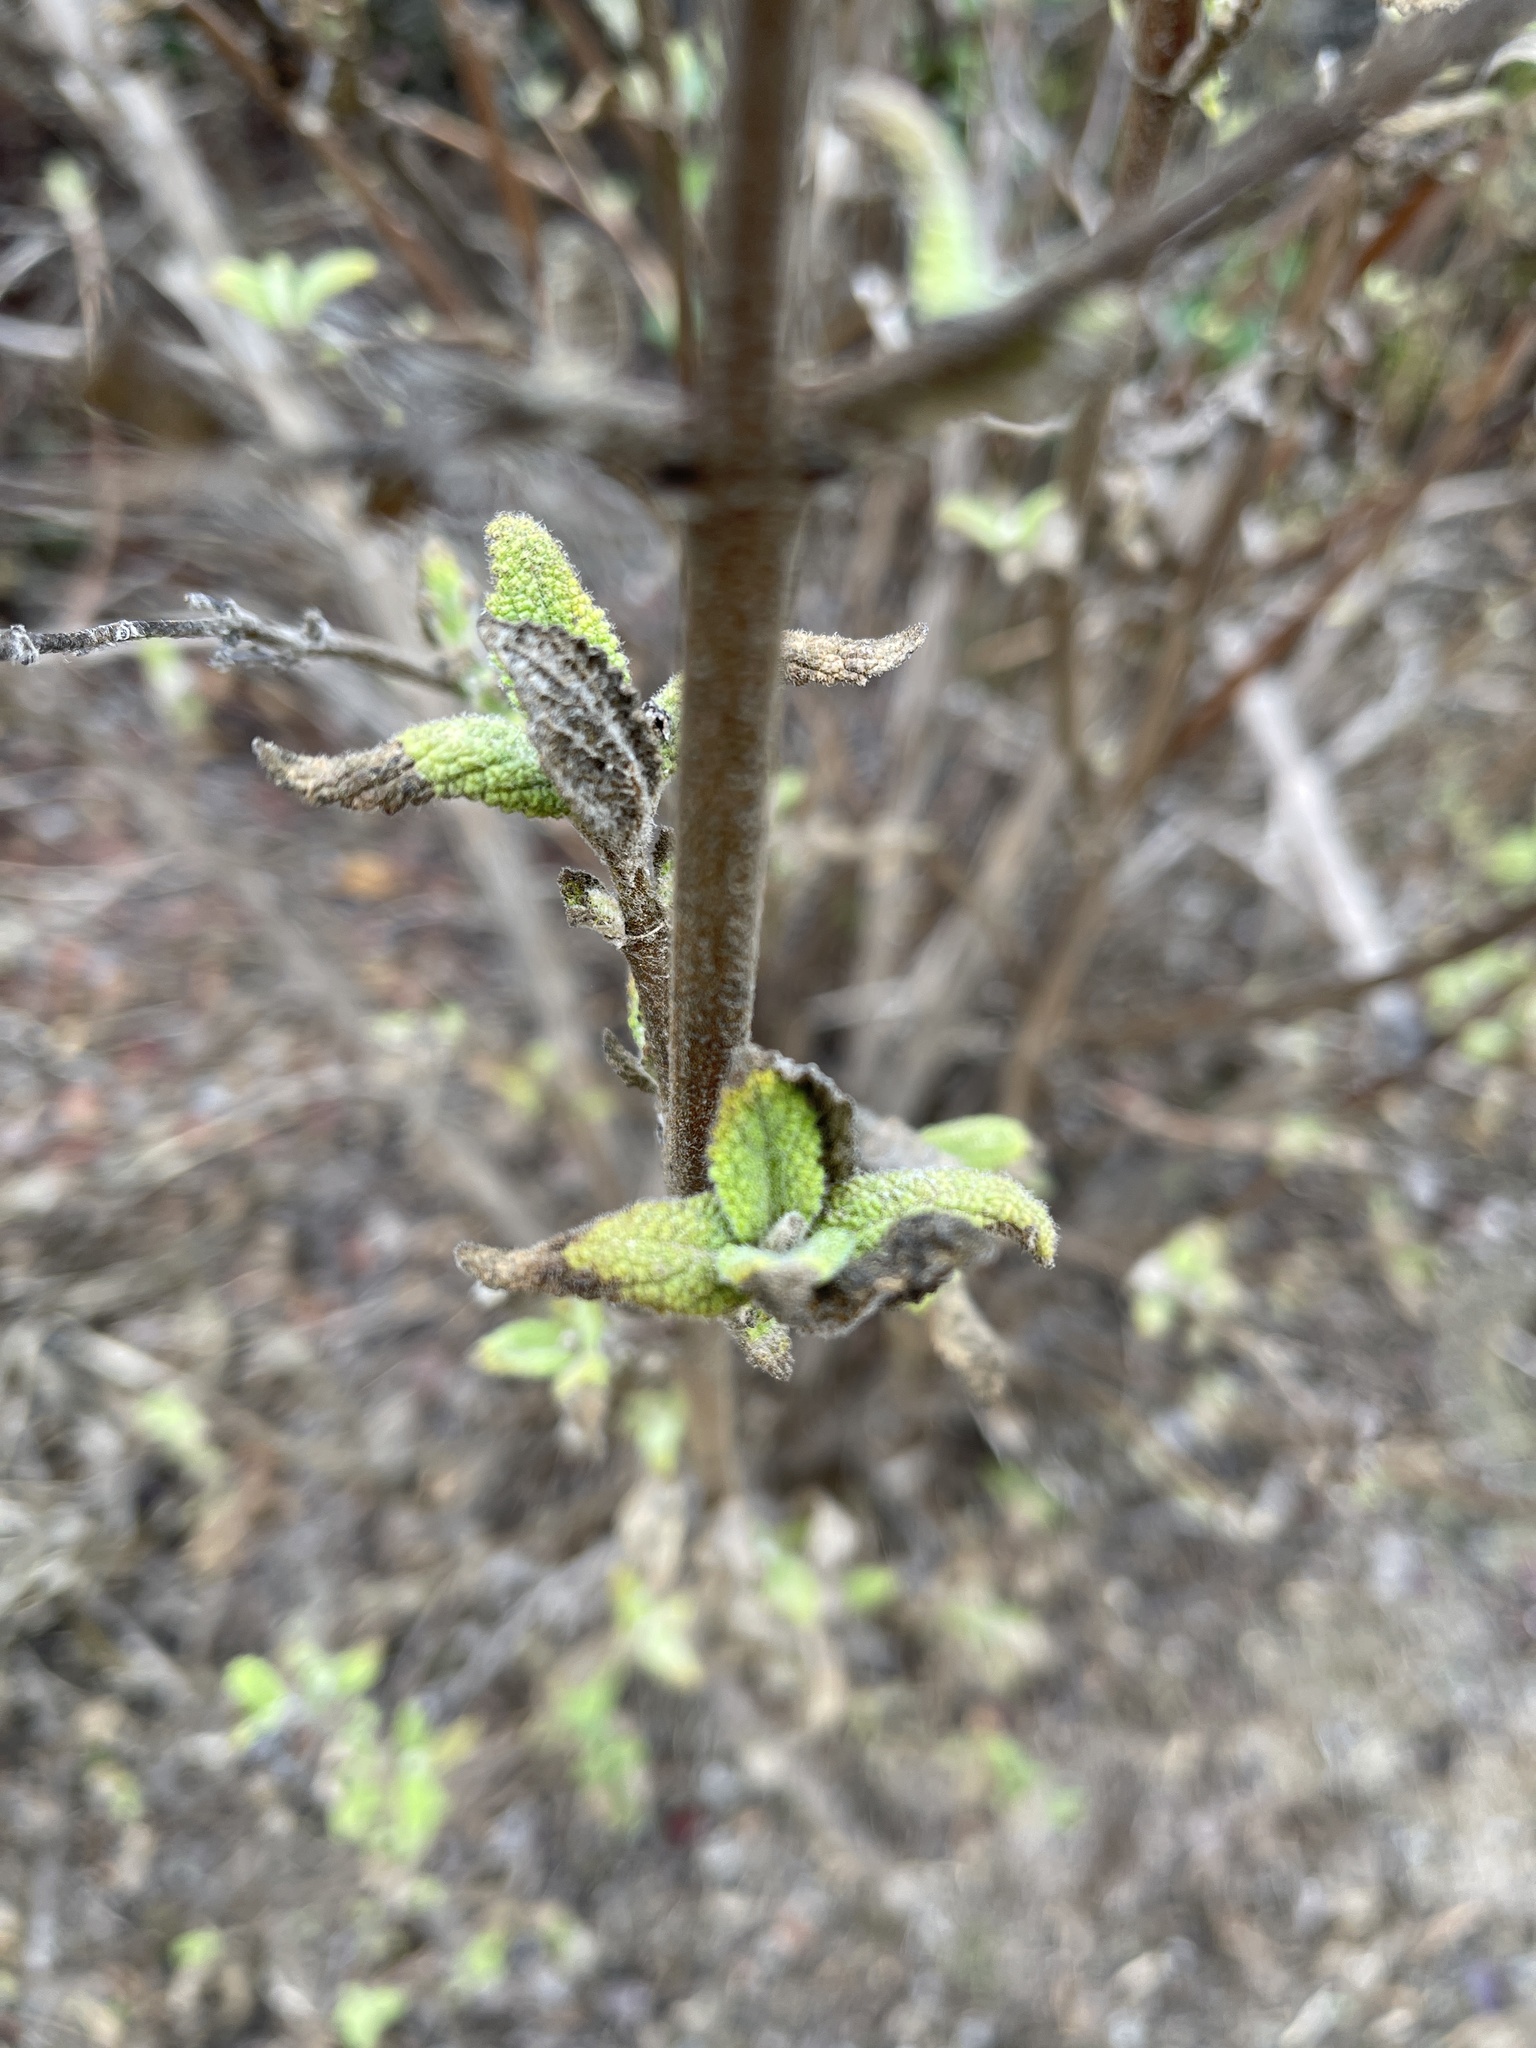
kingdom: Plantae
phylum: Tracheophyta
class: Magnoliopsida
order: Lamiales
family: Lamiaceae
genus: Lepechinia
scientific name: Lepechinia calycina
